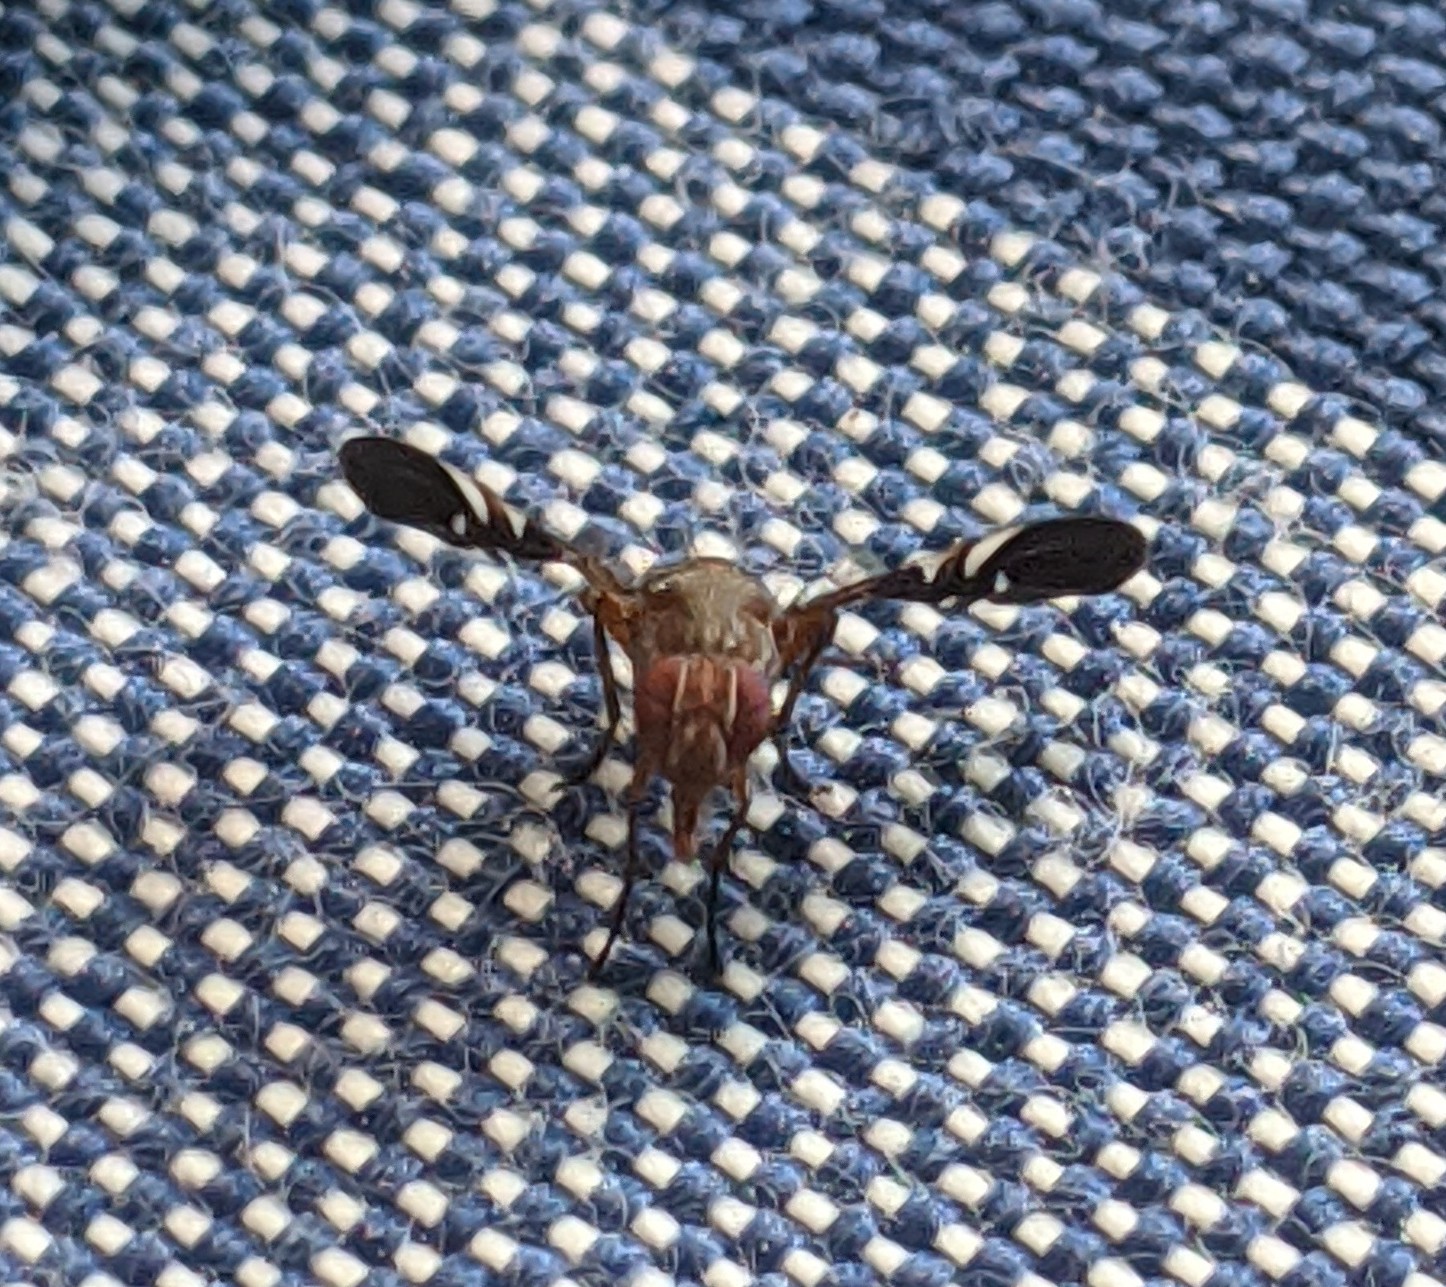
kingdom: Animalia
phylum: Arthropoda
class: Insecta
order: Diptera
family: Ulidiidae
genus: Delphinia
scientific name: Delphinia picta
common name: Common picture-winged fly
